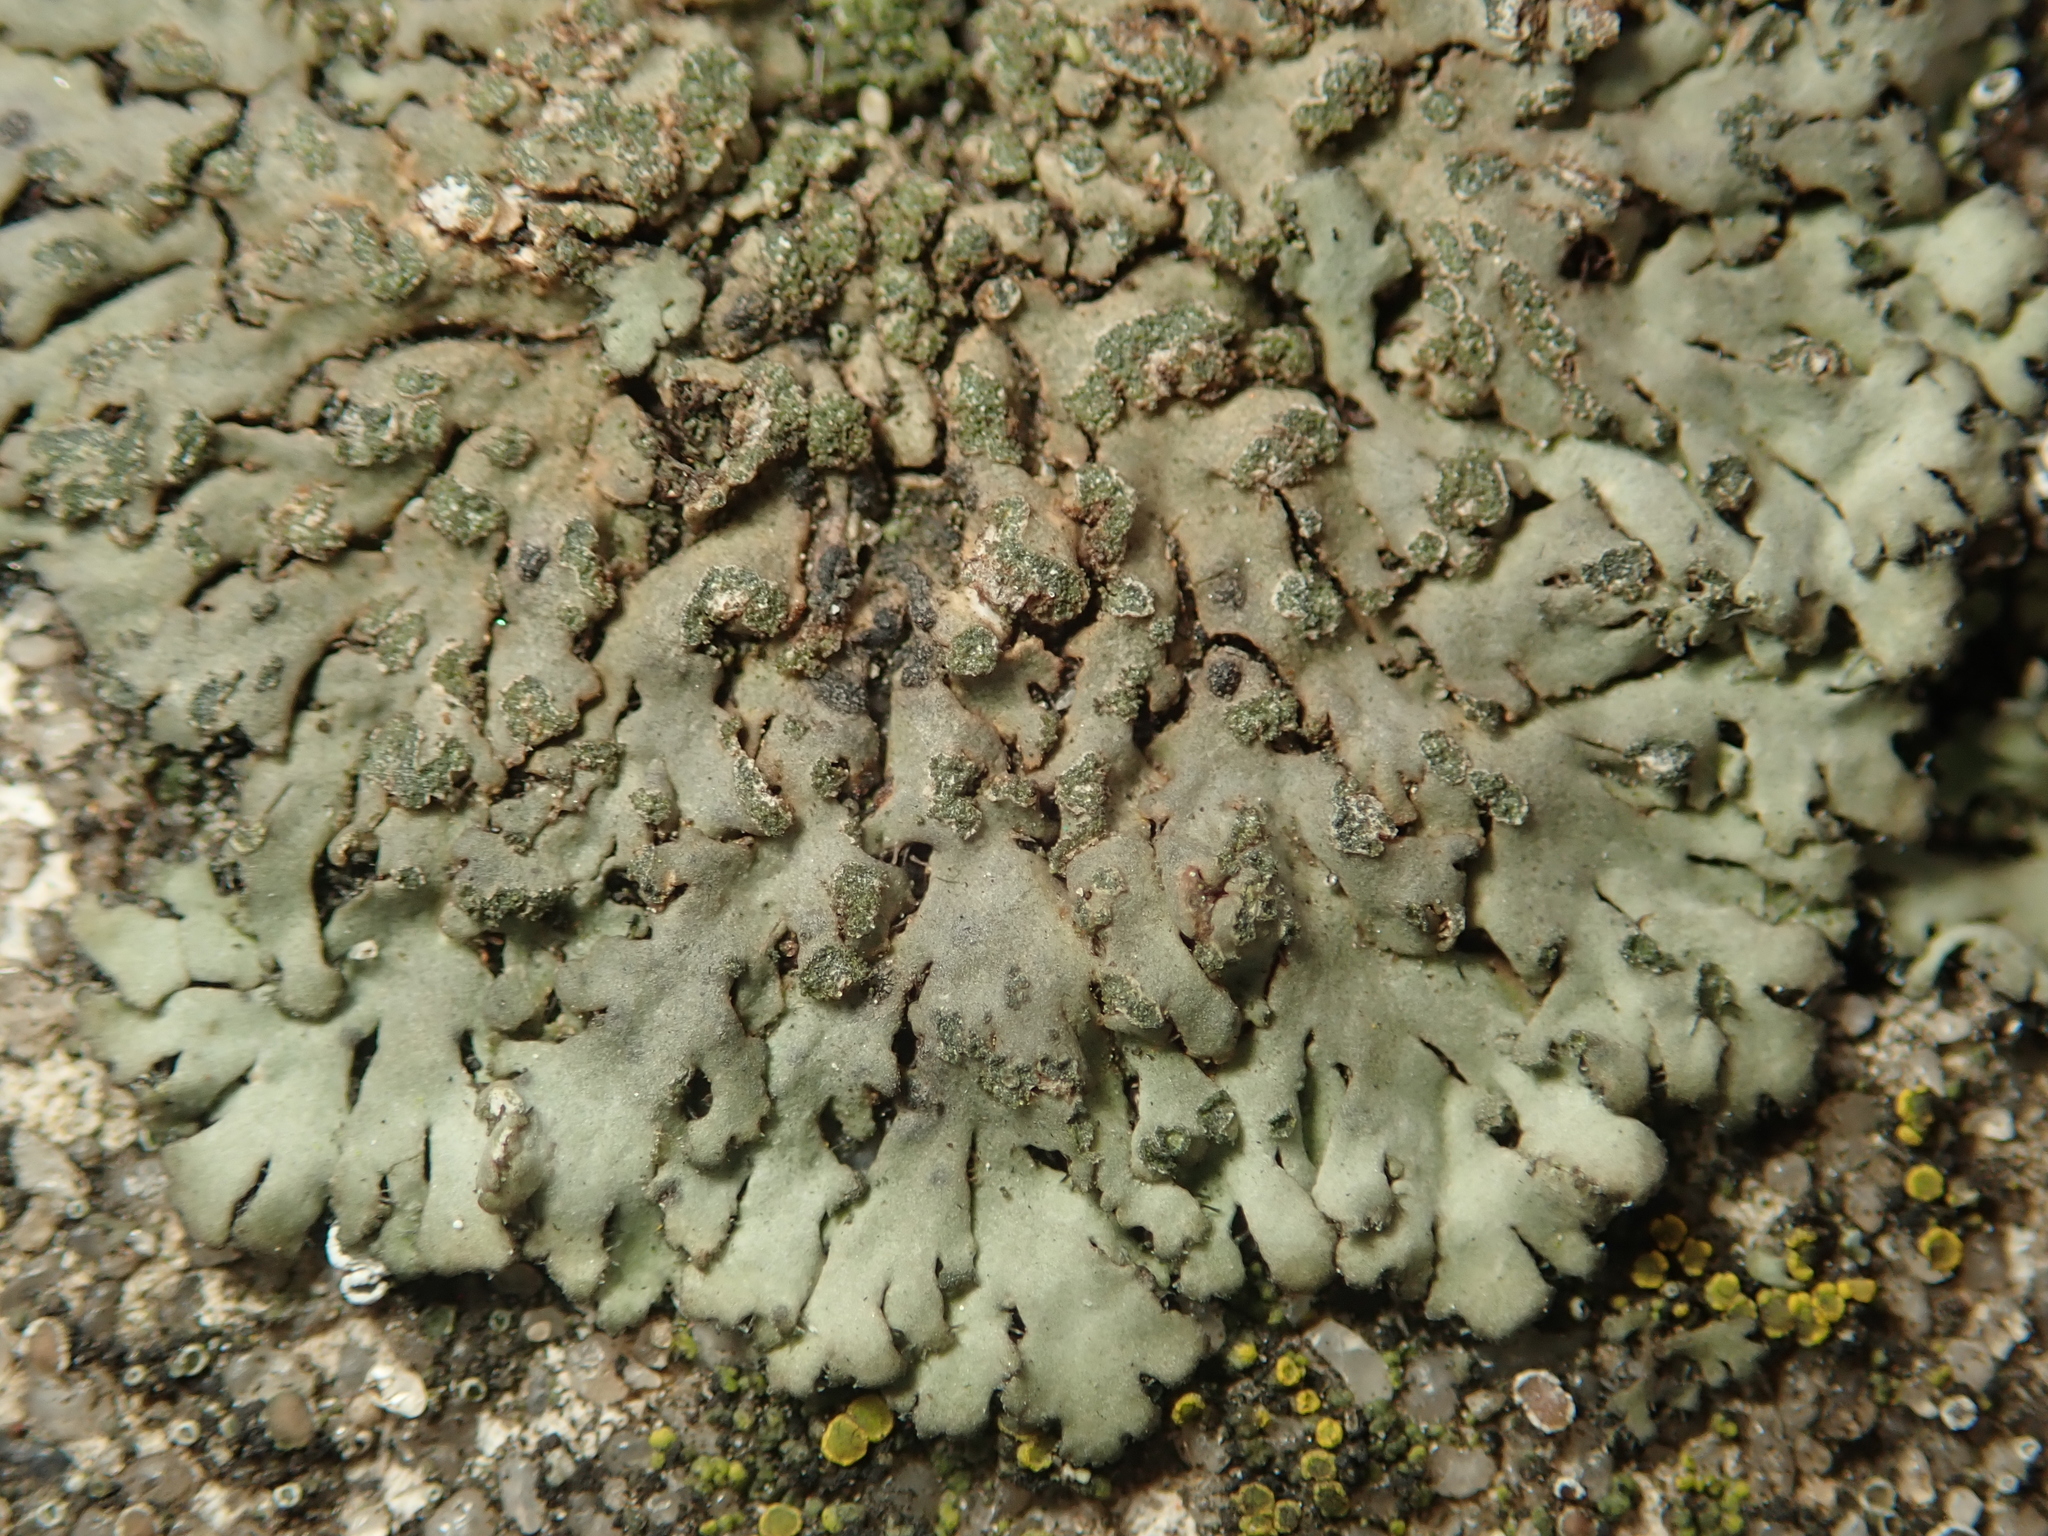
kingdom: Fungi
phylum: Ascomycota
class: Lecanoromycetes
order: Caliciales
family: Physciaceae
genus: Phaeophyscia
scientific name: Phaeophyscia orbicularis
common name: Mealy shadow lichen
